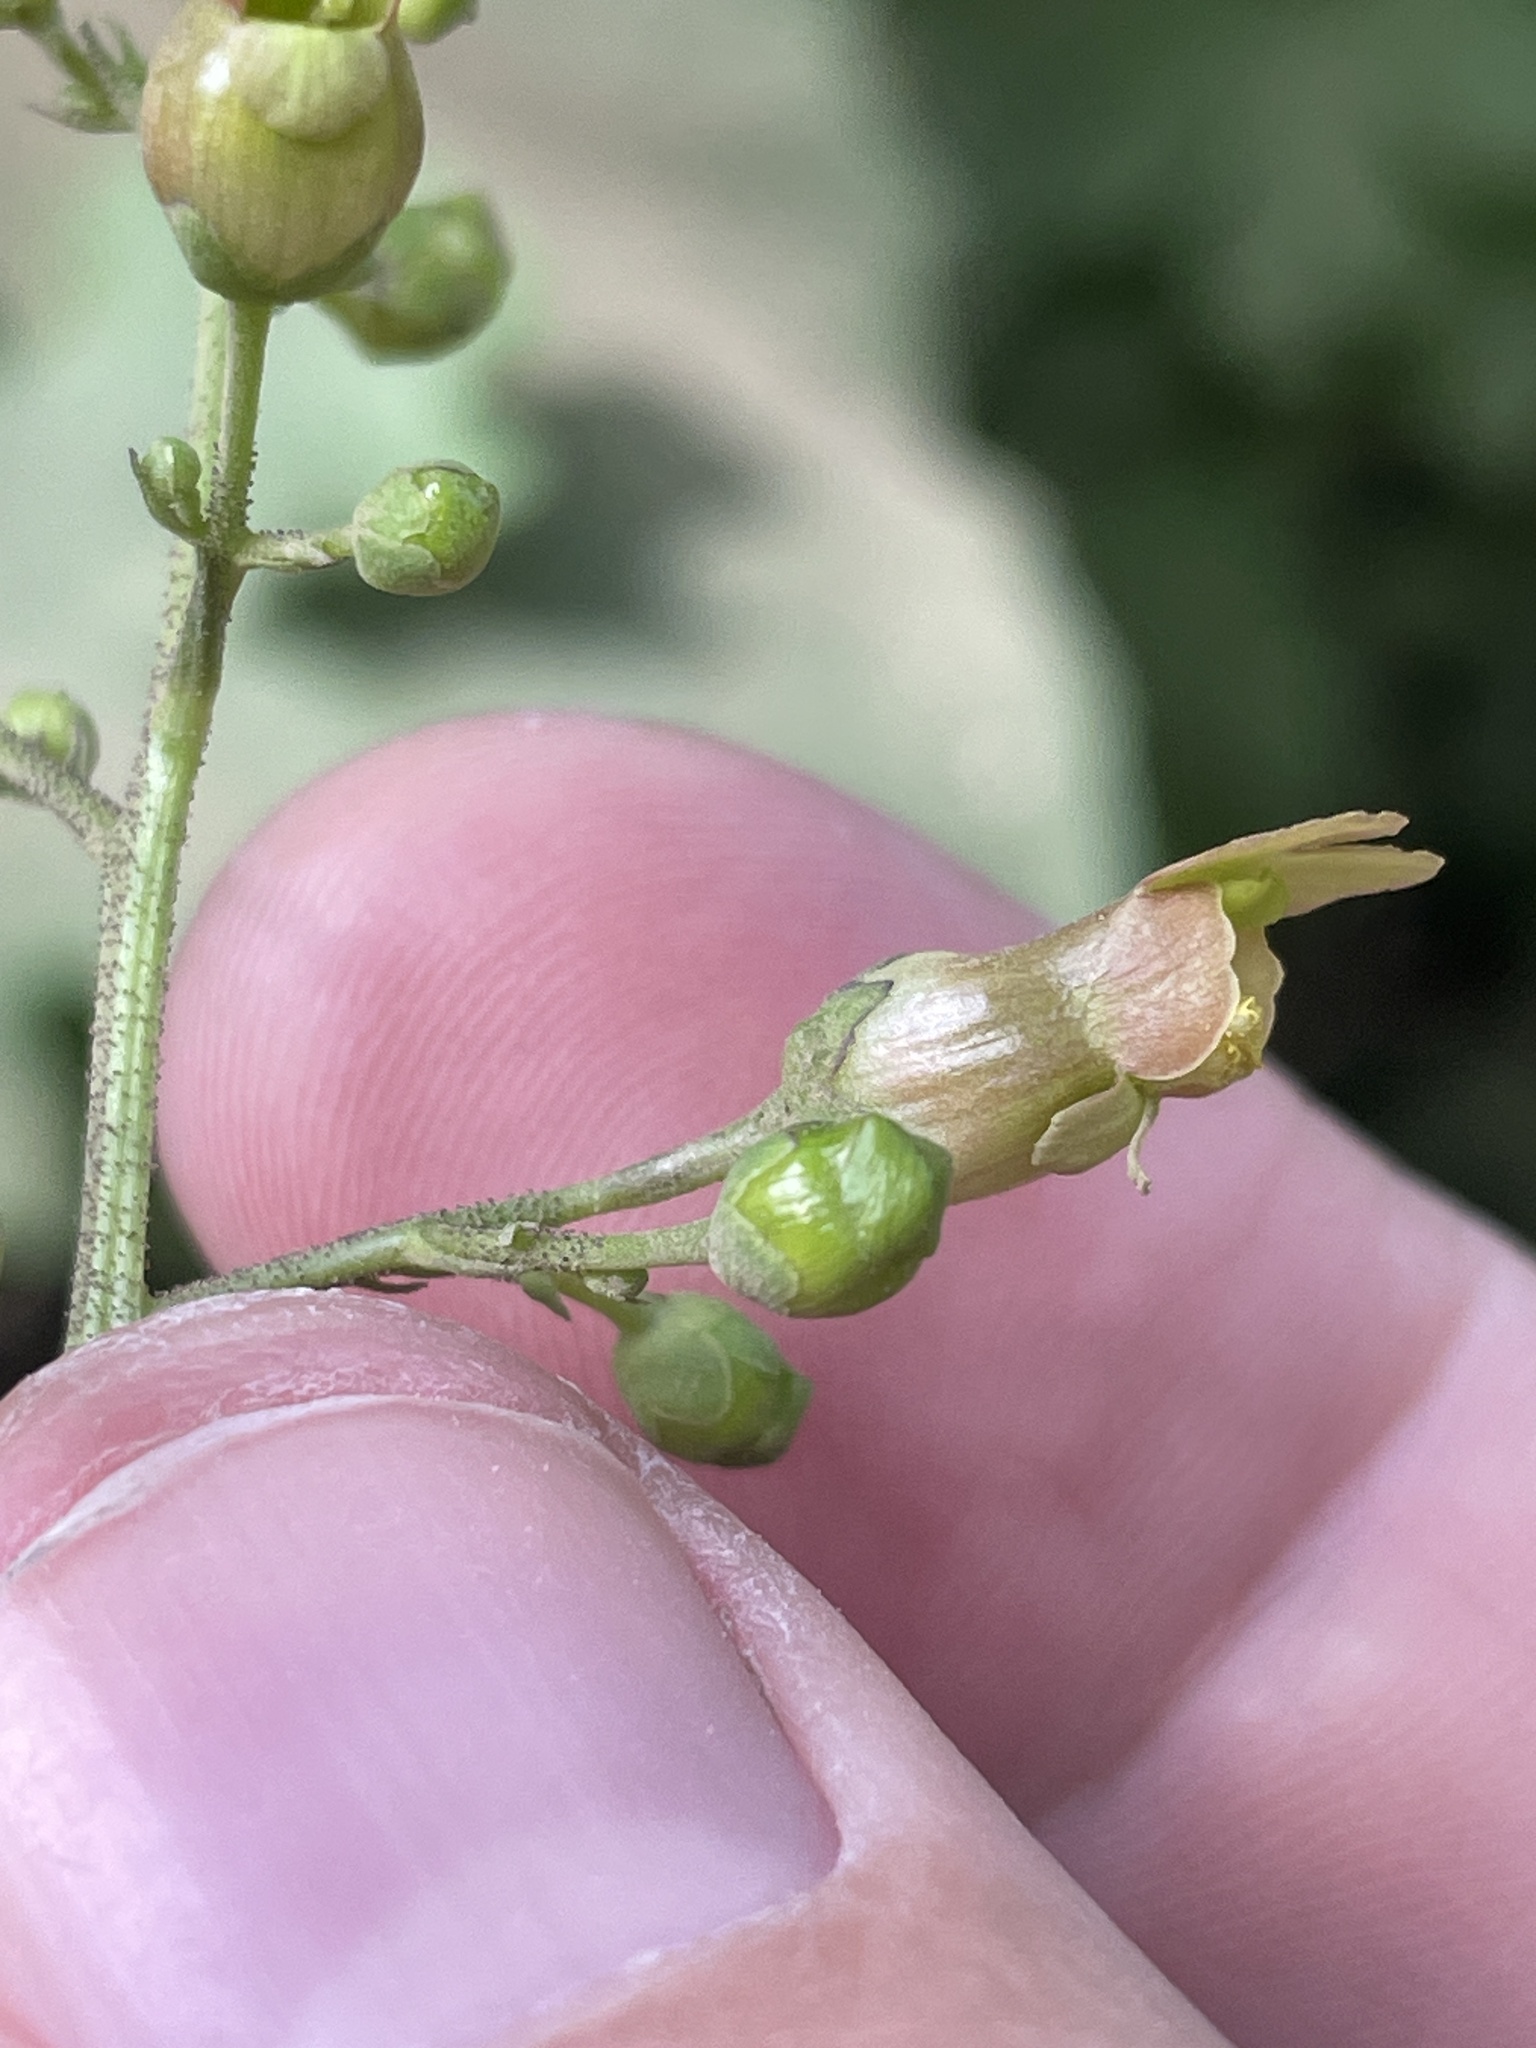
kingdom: Plantae
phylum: Tracheophyta
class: Magnoliopsida
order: Lamiales
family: Scrophulariaceae
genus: Scrophularia
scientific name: Scrophularia lanceolata
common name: American figwort
